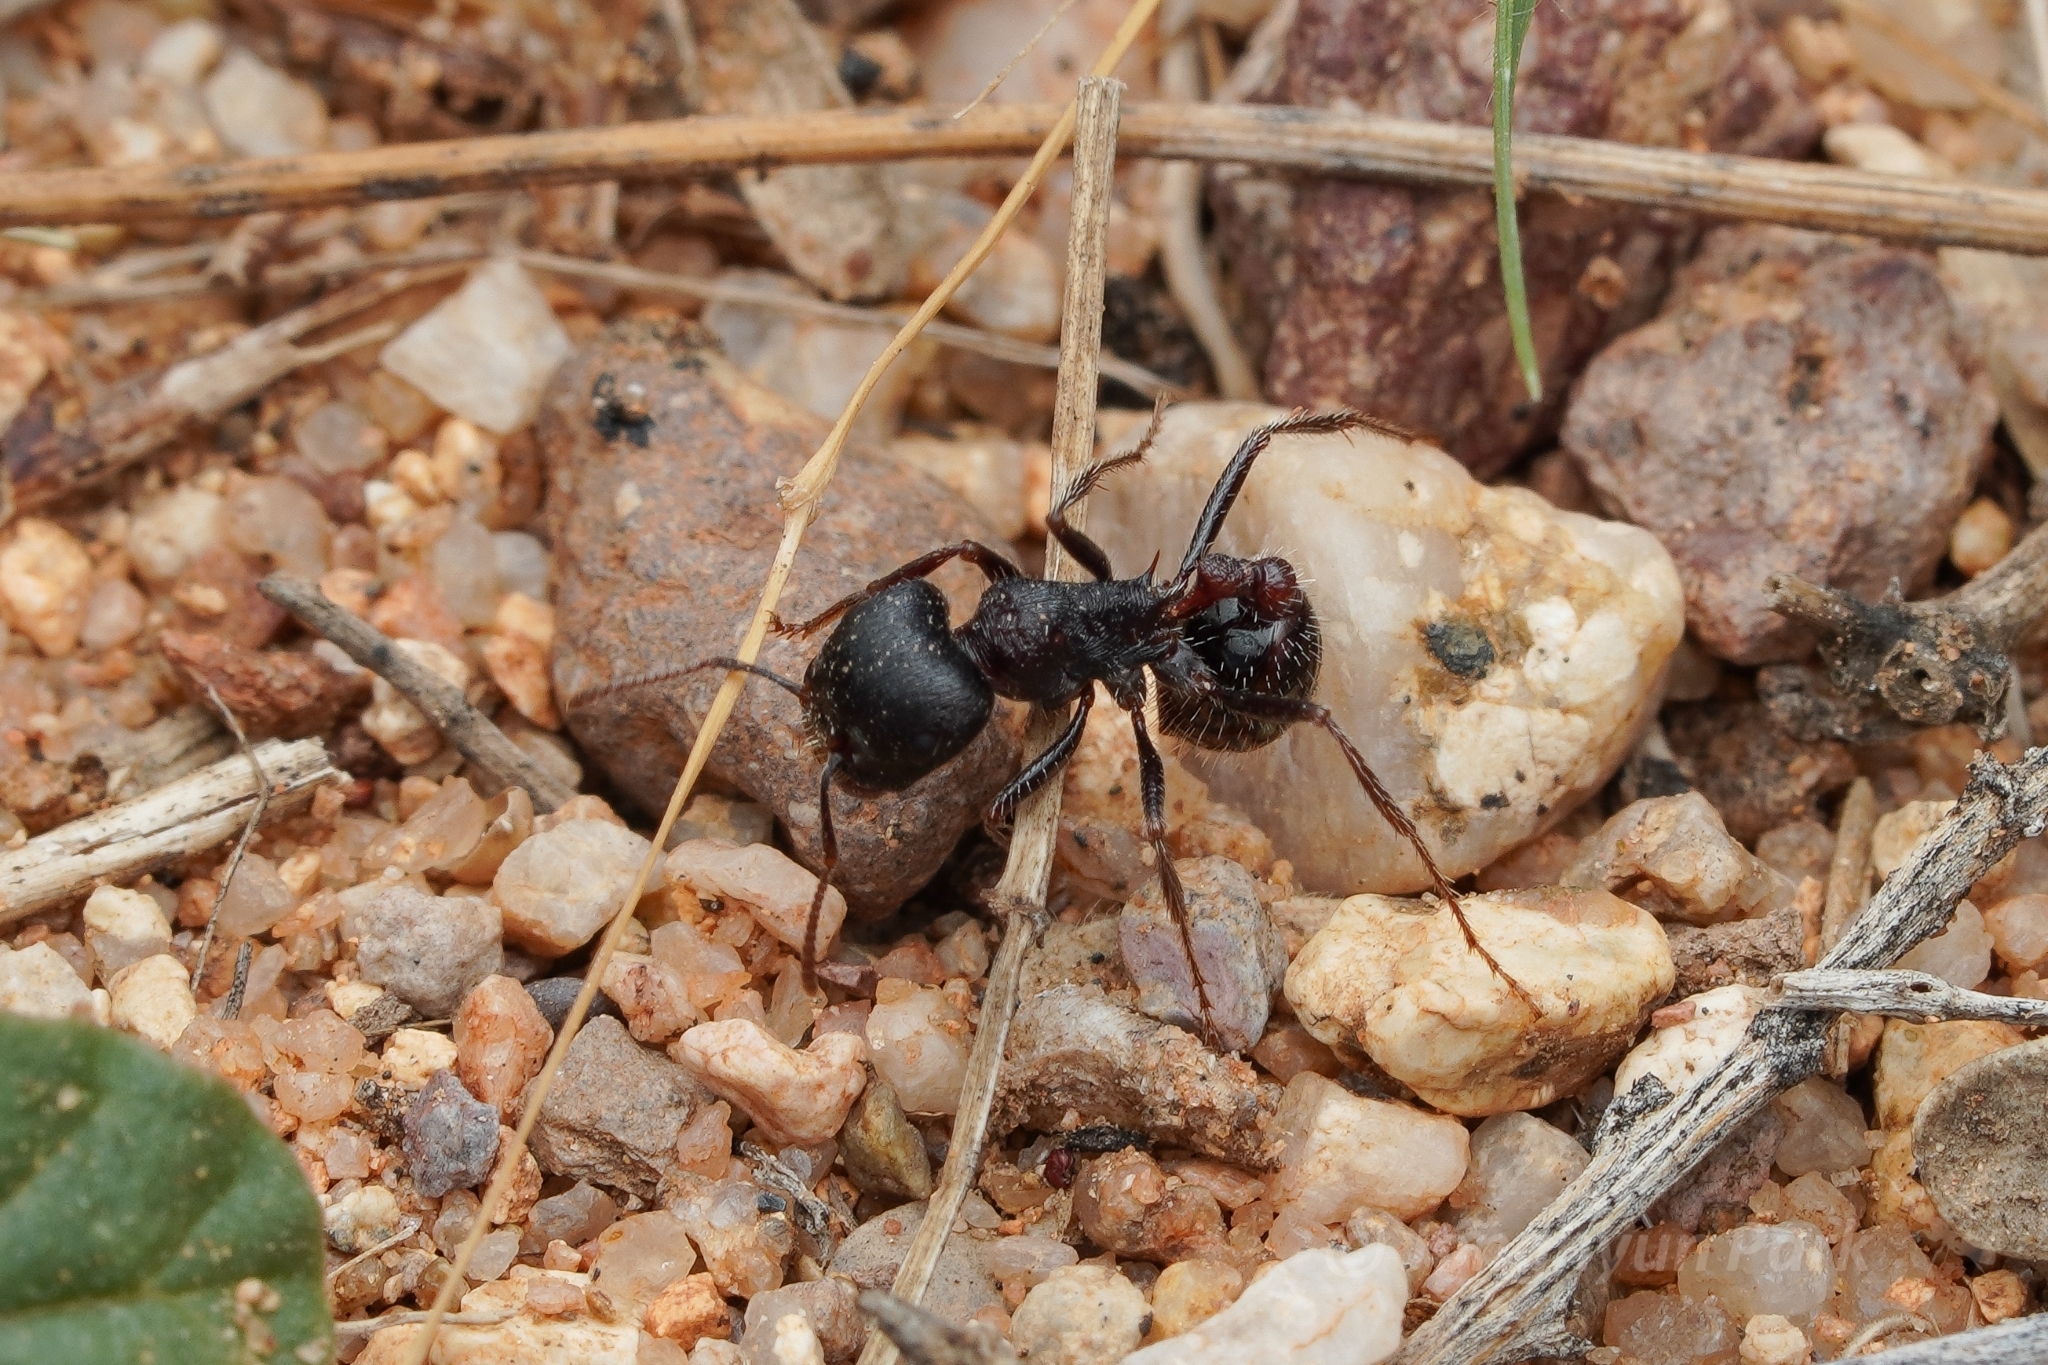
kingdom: Animalia
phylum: Arthropoda
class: Insecta
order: Hymenoptera
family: Formicidae
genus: Pogonomyrmex
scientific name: Pogonomyrmex rugosus
